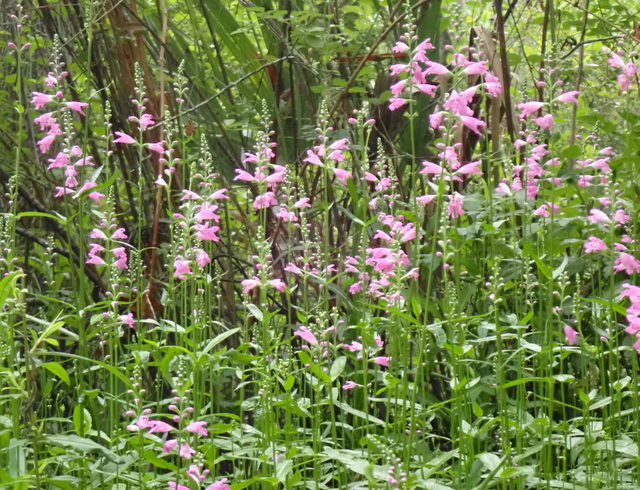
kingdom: Plantae
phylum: Tracheophyta
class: Magnoliopsida
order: Lamiales
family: Lamiaceae
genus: Physostegia
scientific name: Physostegia purpurea
